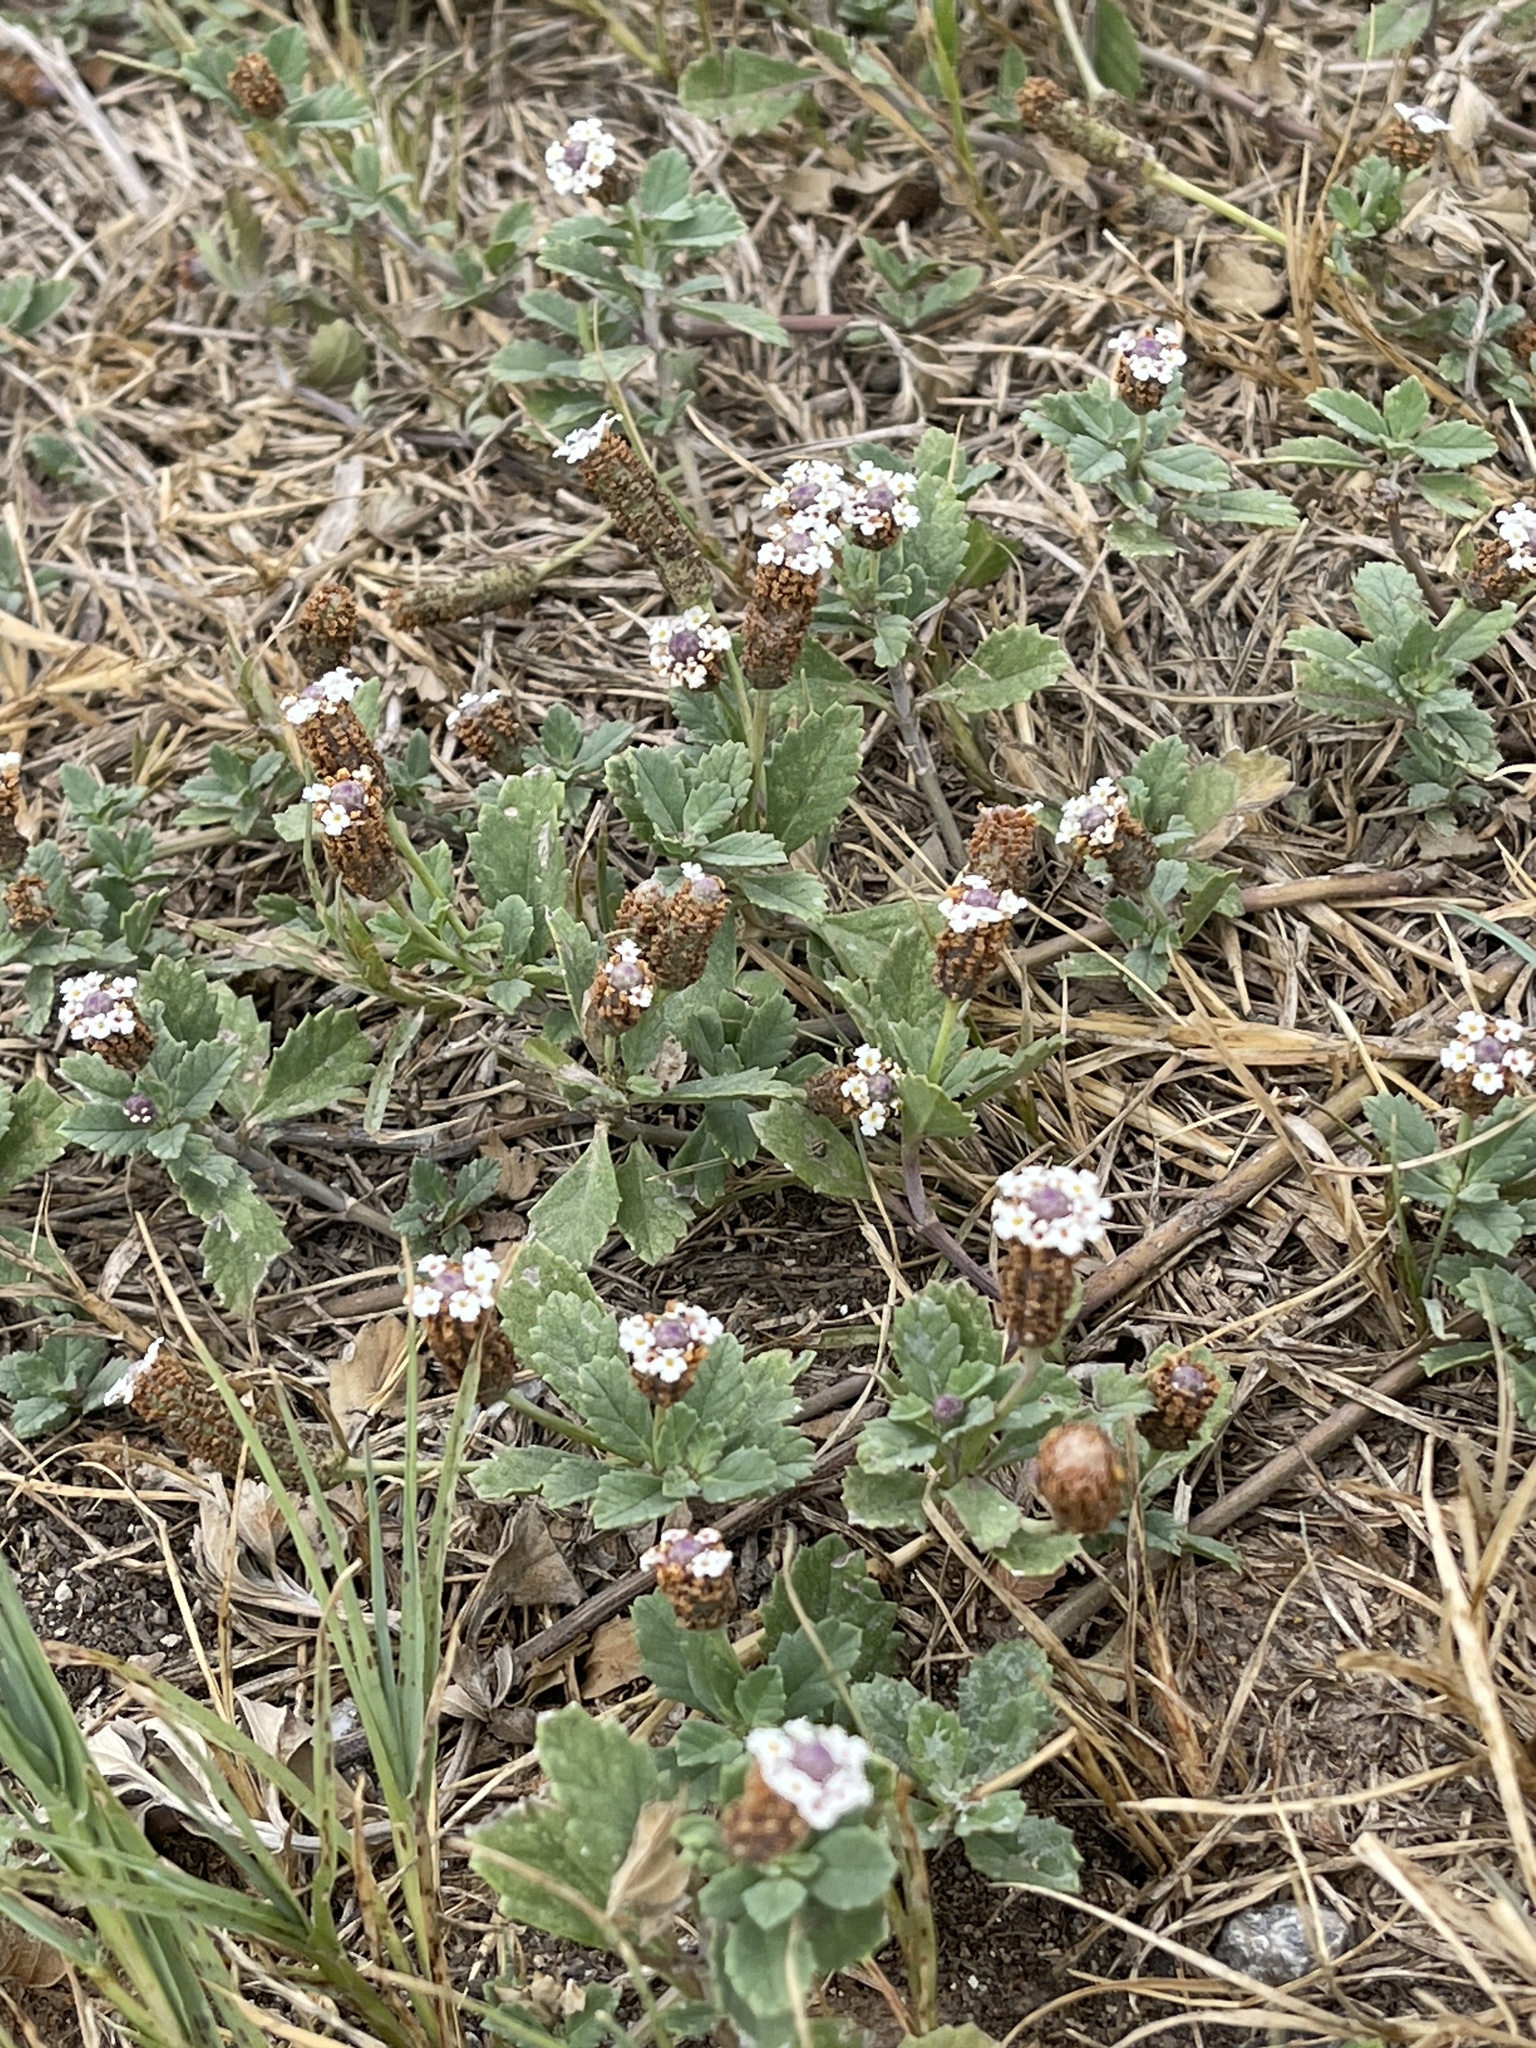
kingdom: Plantae
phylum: Tracheophyta
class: Magnoliopsida
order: Lamiales
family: Verbenaceae
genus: Phyla
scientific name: Phyla nodiflora
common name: Frogfruit
